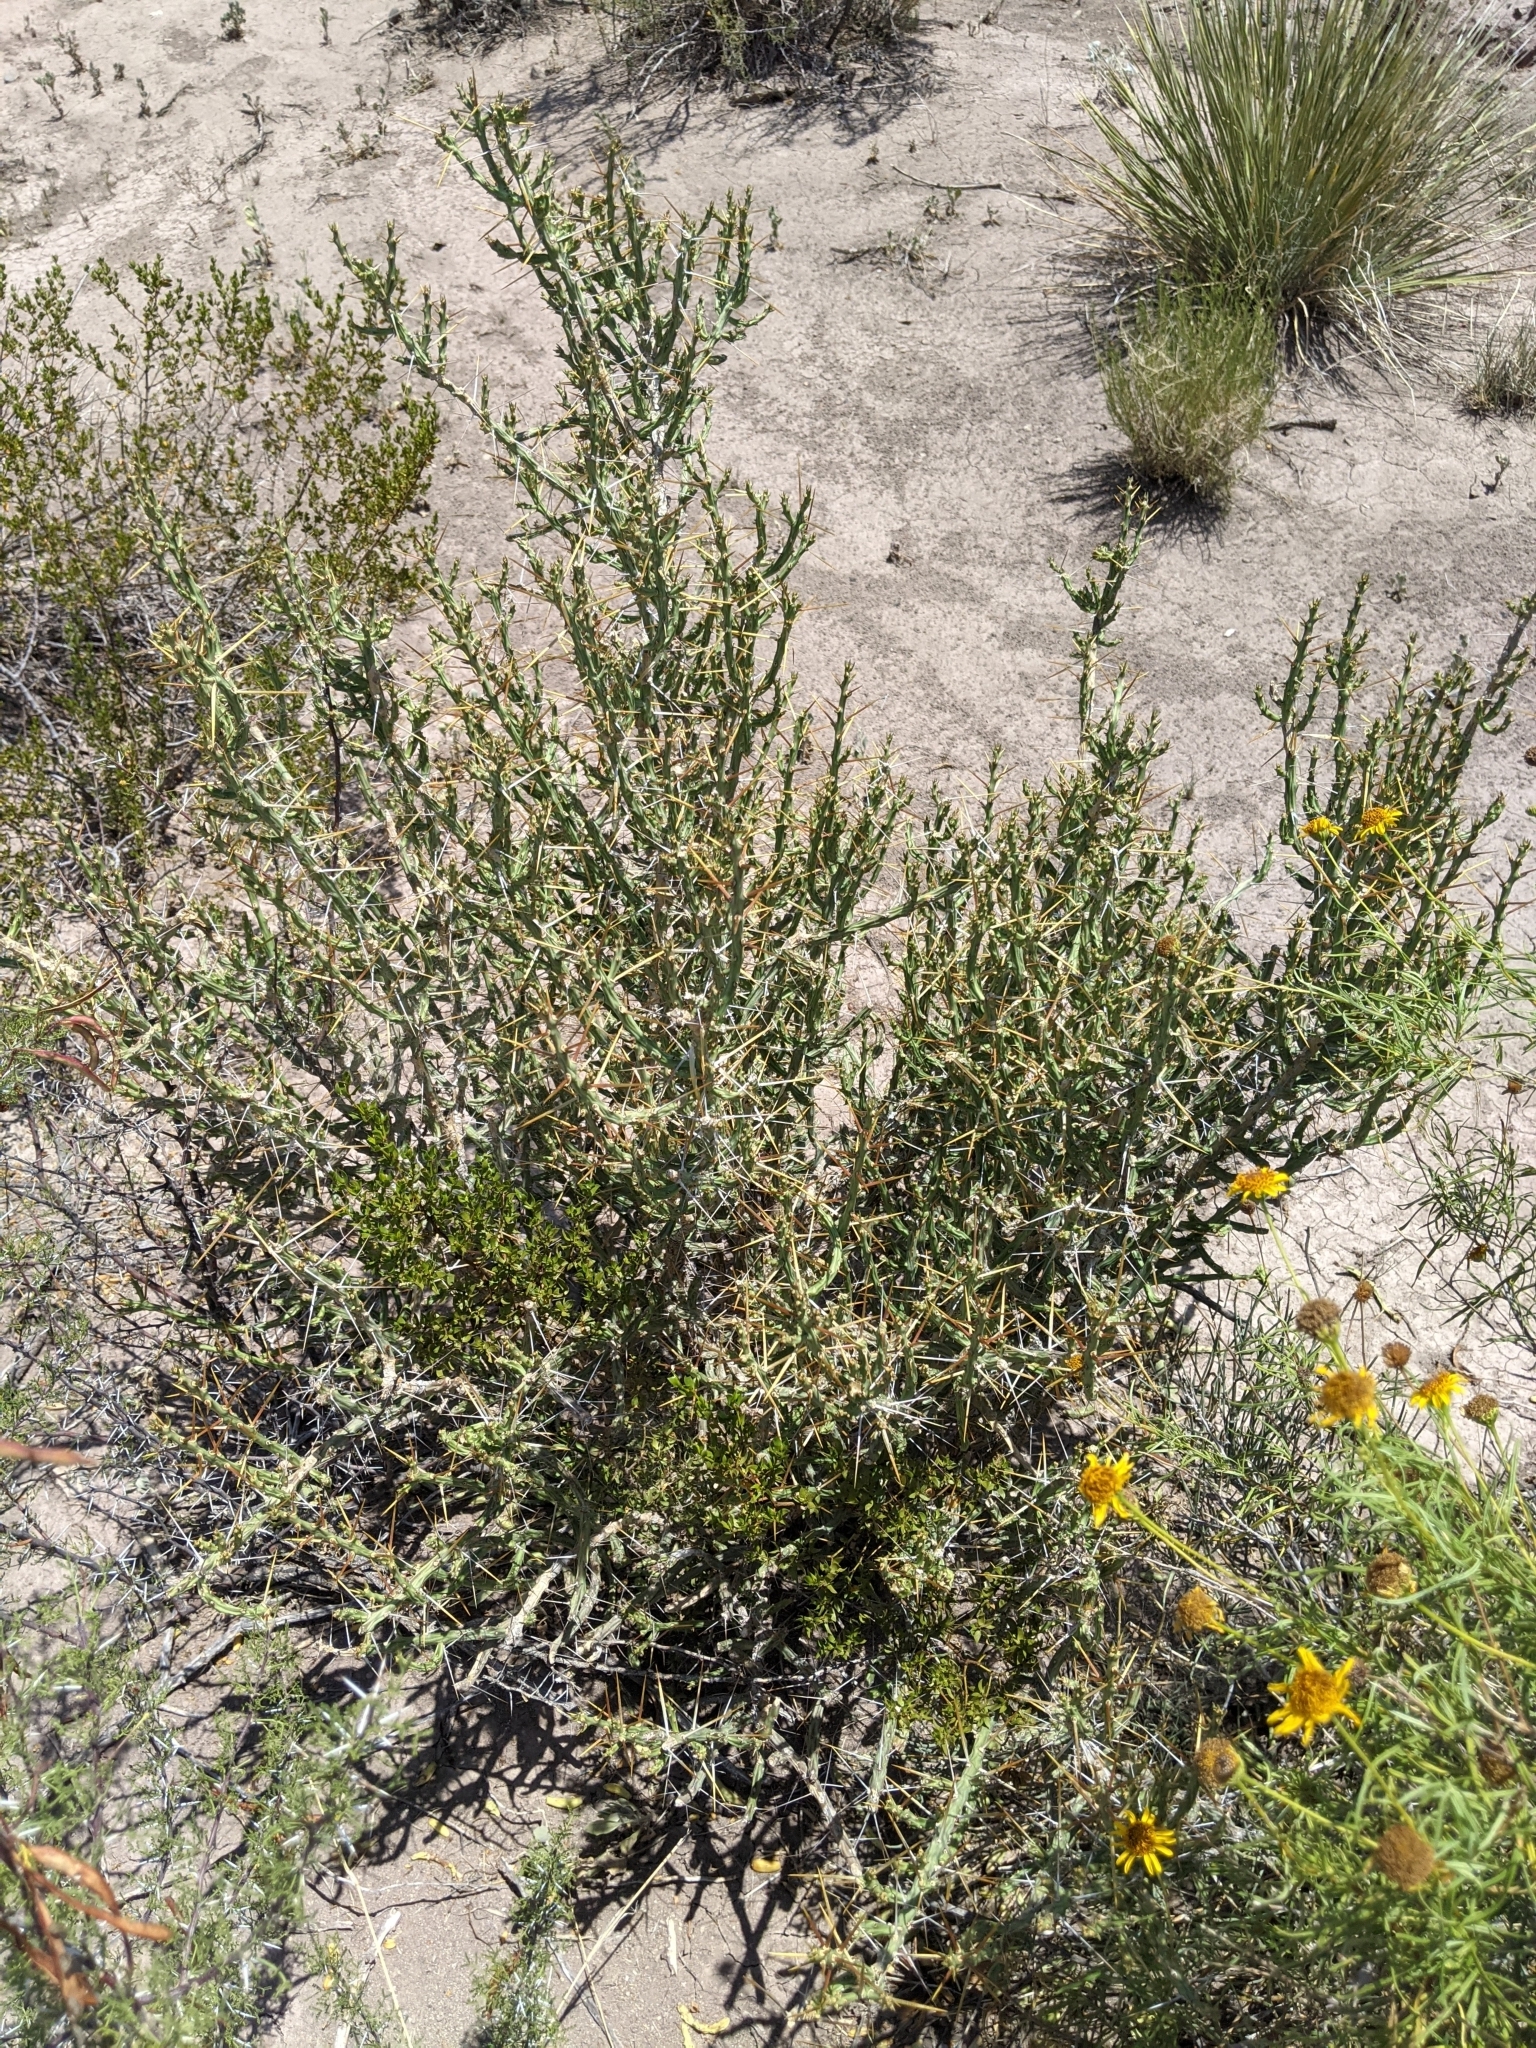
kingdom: Plantae
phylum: Tracheophyta
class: Magnoliopsida
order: Caryophyllales
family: Cactaceae
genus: Cylindropuntia
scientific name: Cylindropuntia leptocaulis
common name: Christmas cactus
